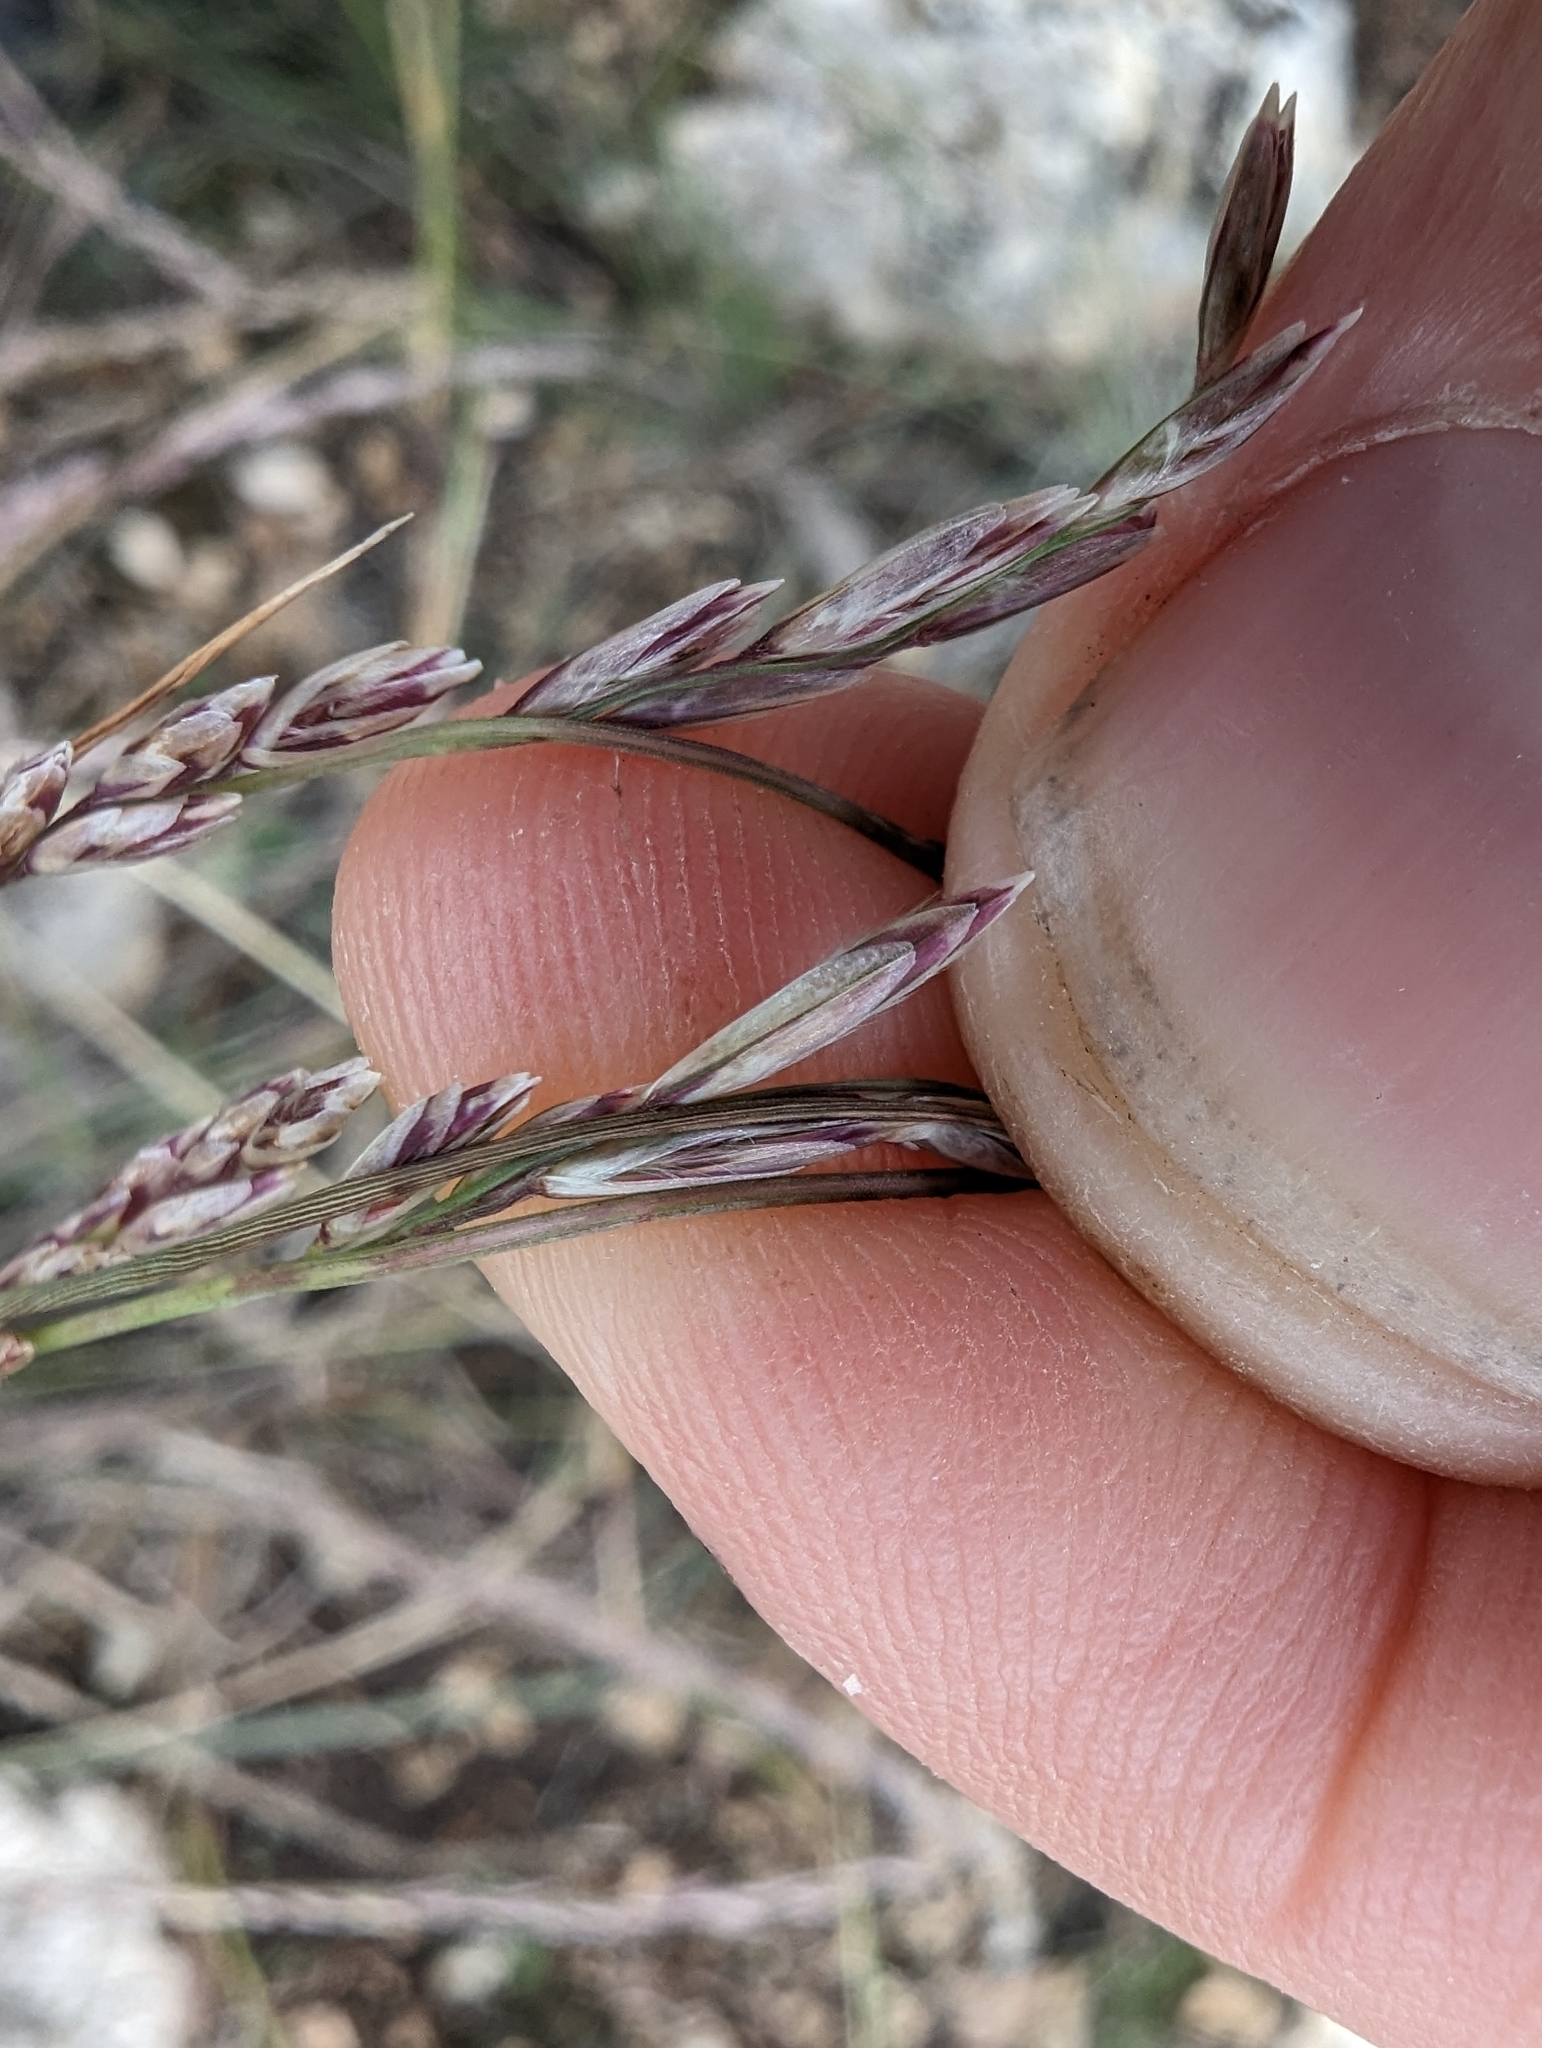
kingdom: Plantae
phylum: Tracheophyta
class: Liliopsida
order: Poales
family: Poaceae
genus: Tridentopsis
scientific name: Tridentopsis mutica
